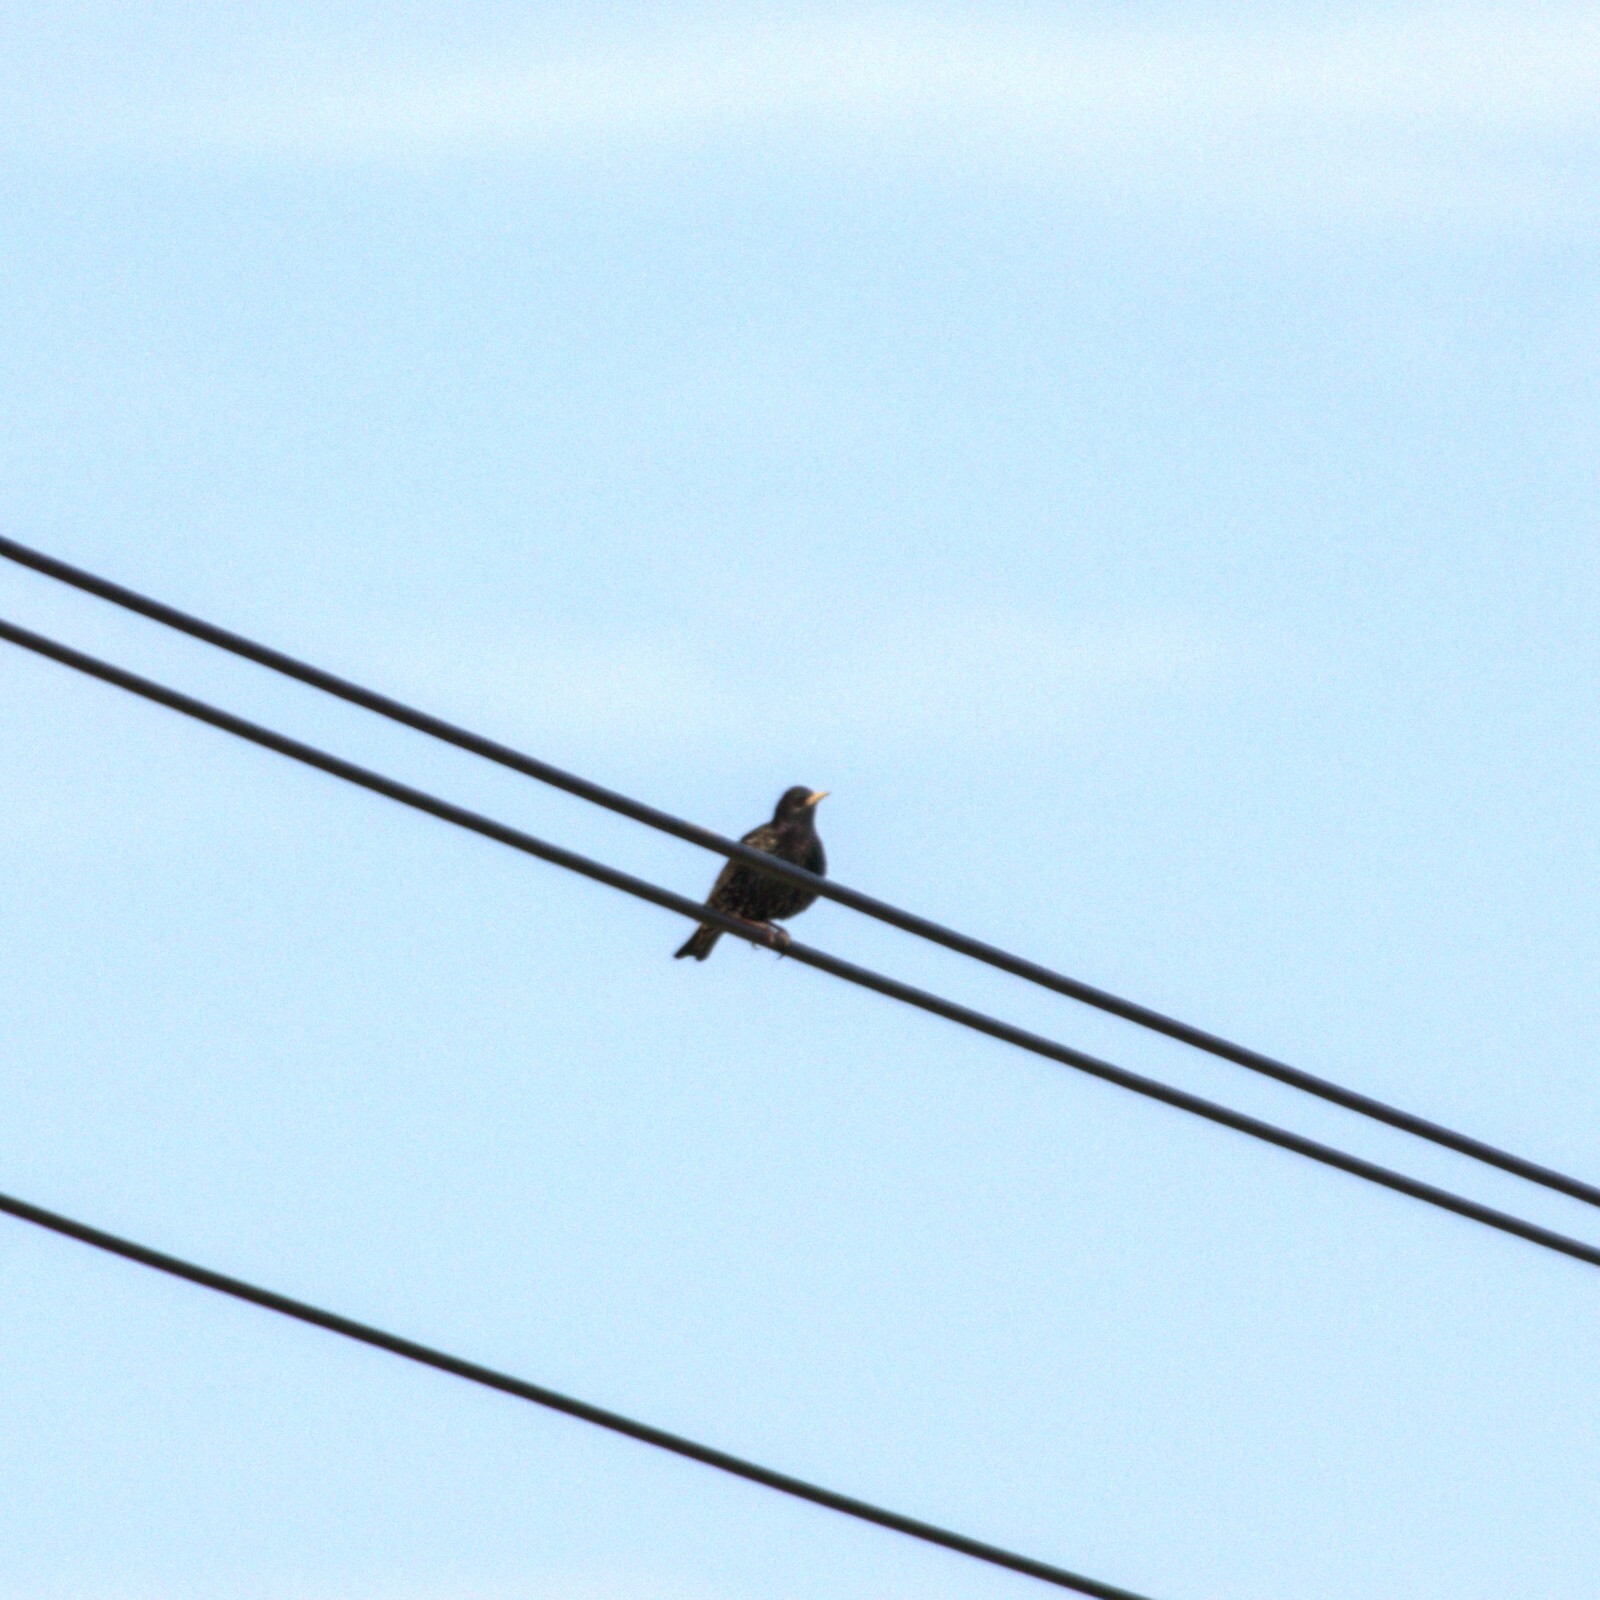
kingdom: Animalia
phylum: Chordata
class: Aves
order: Passeriformes
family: Sturnidae
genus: Sturnus
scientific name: Sturnus vulgaris
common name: Common starling
